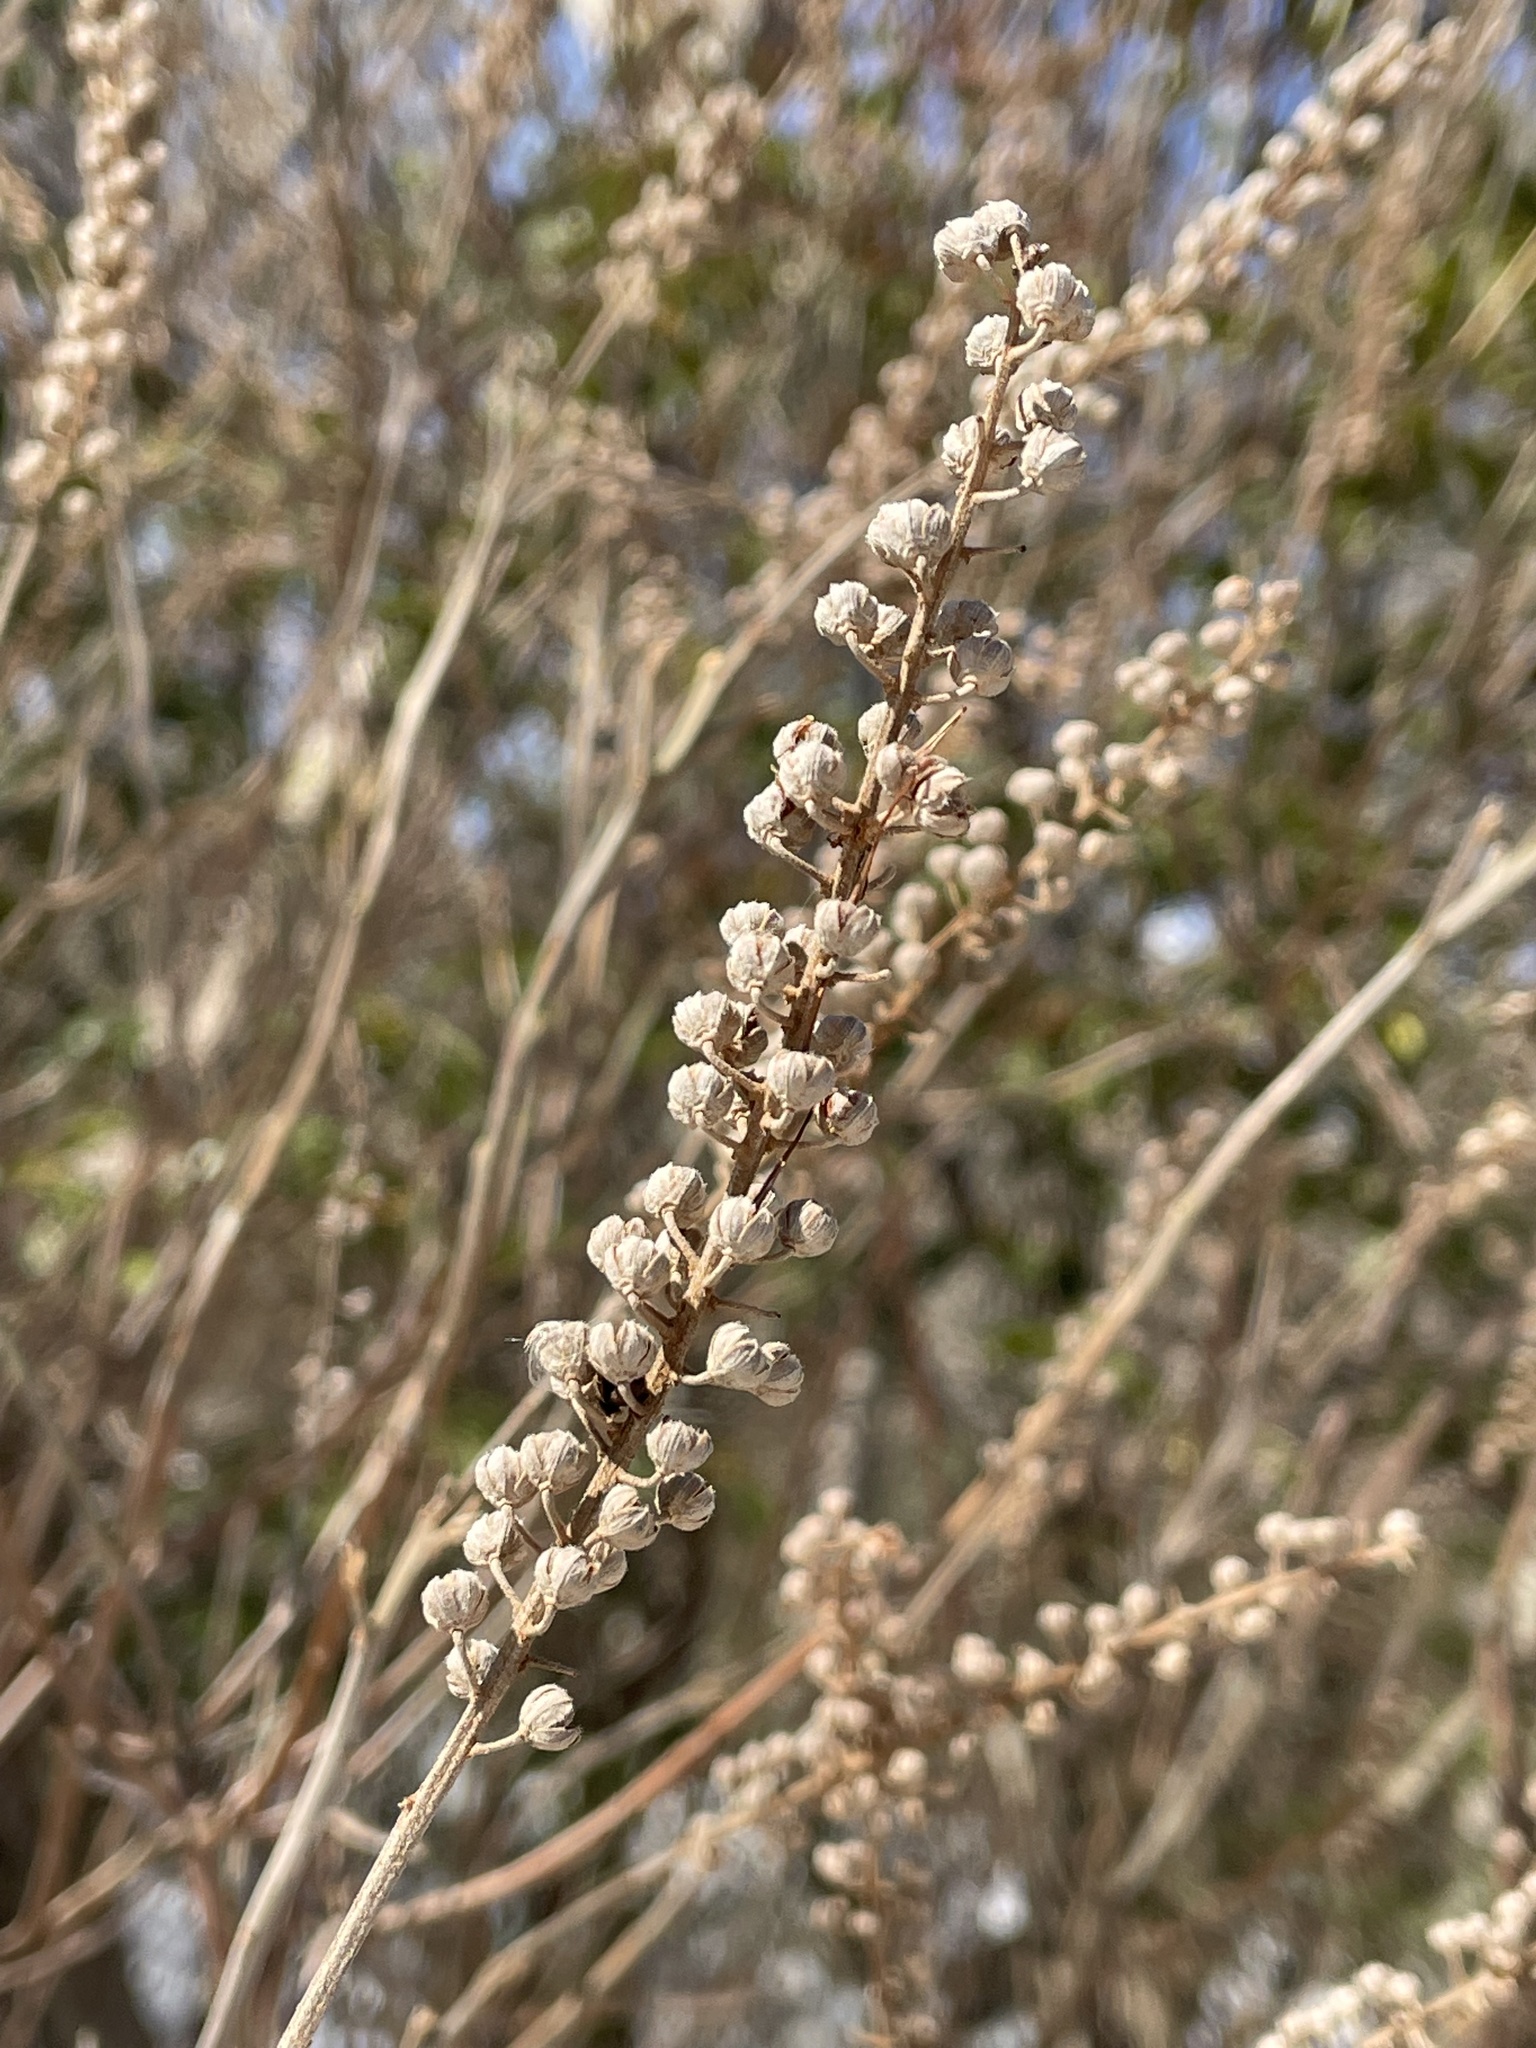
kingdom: Plantae
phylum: Tracheophyta
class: Magnoliopsida
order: Ericales
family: Clethraceae
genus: Clethra
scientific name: Clethra alnifolia
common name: Sweet pepperbush
